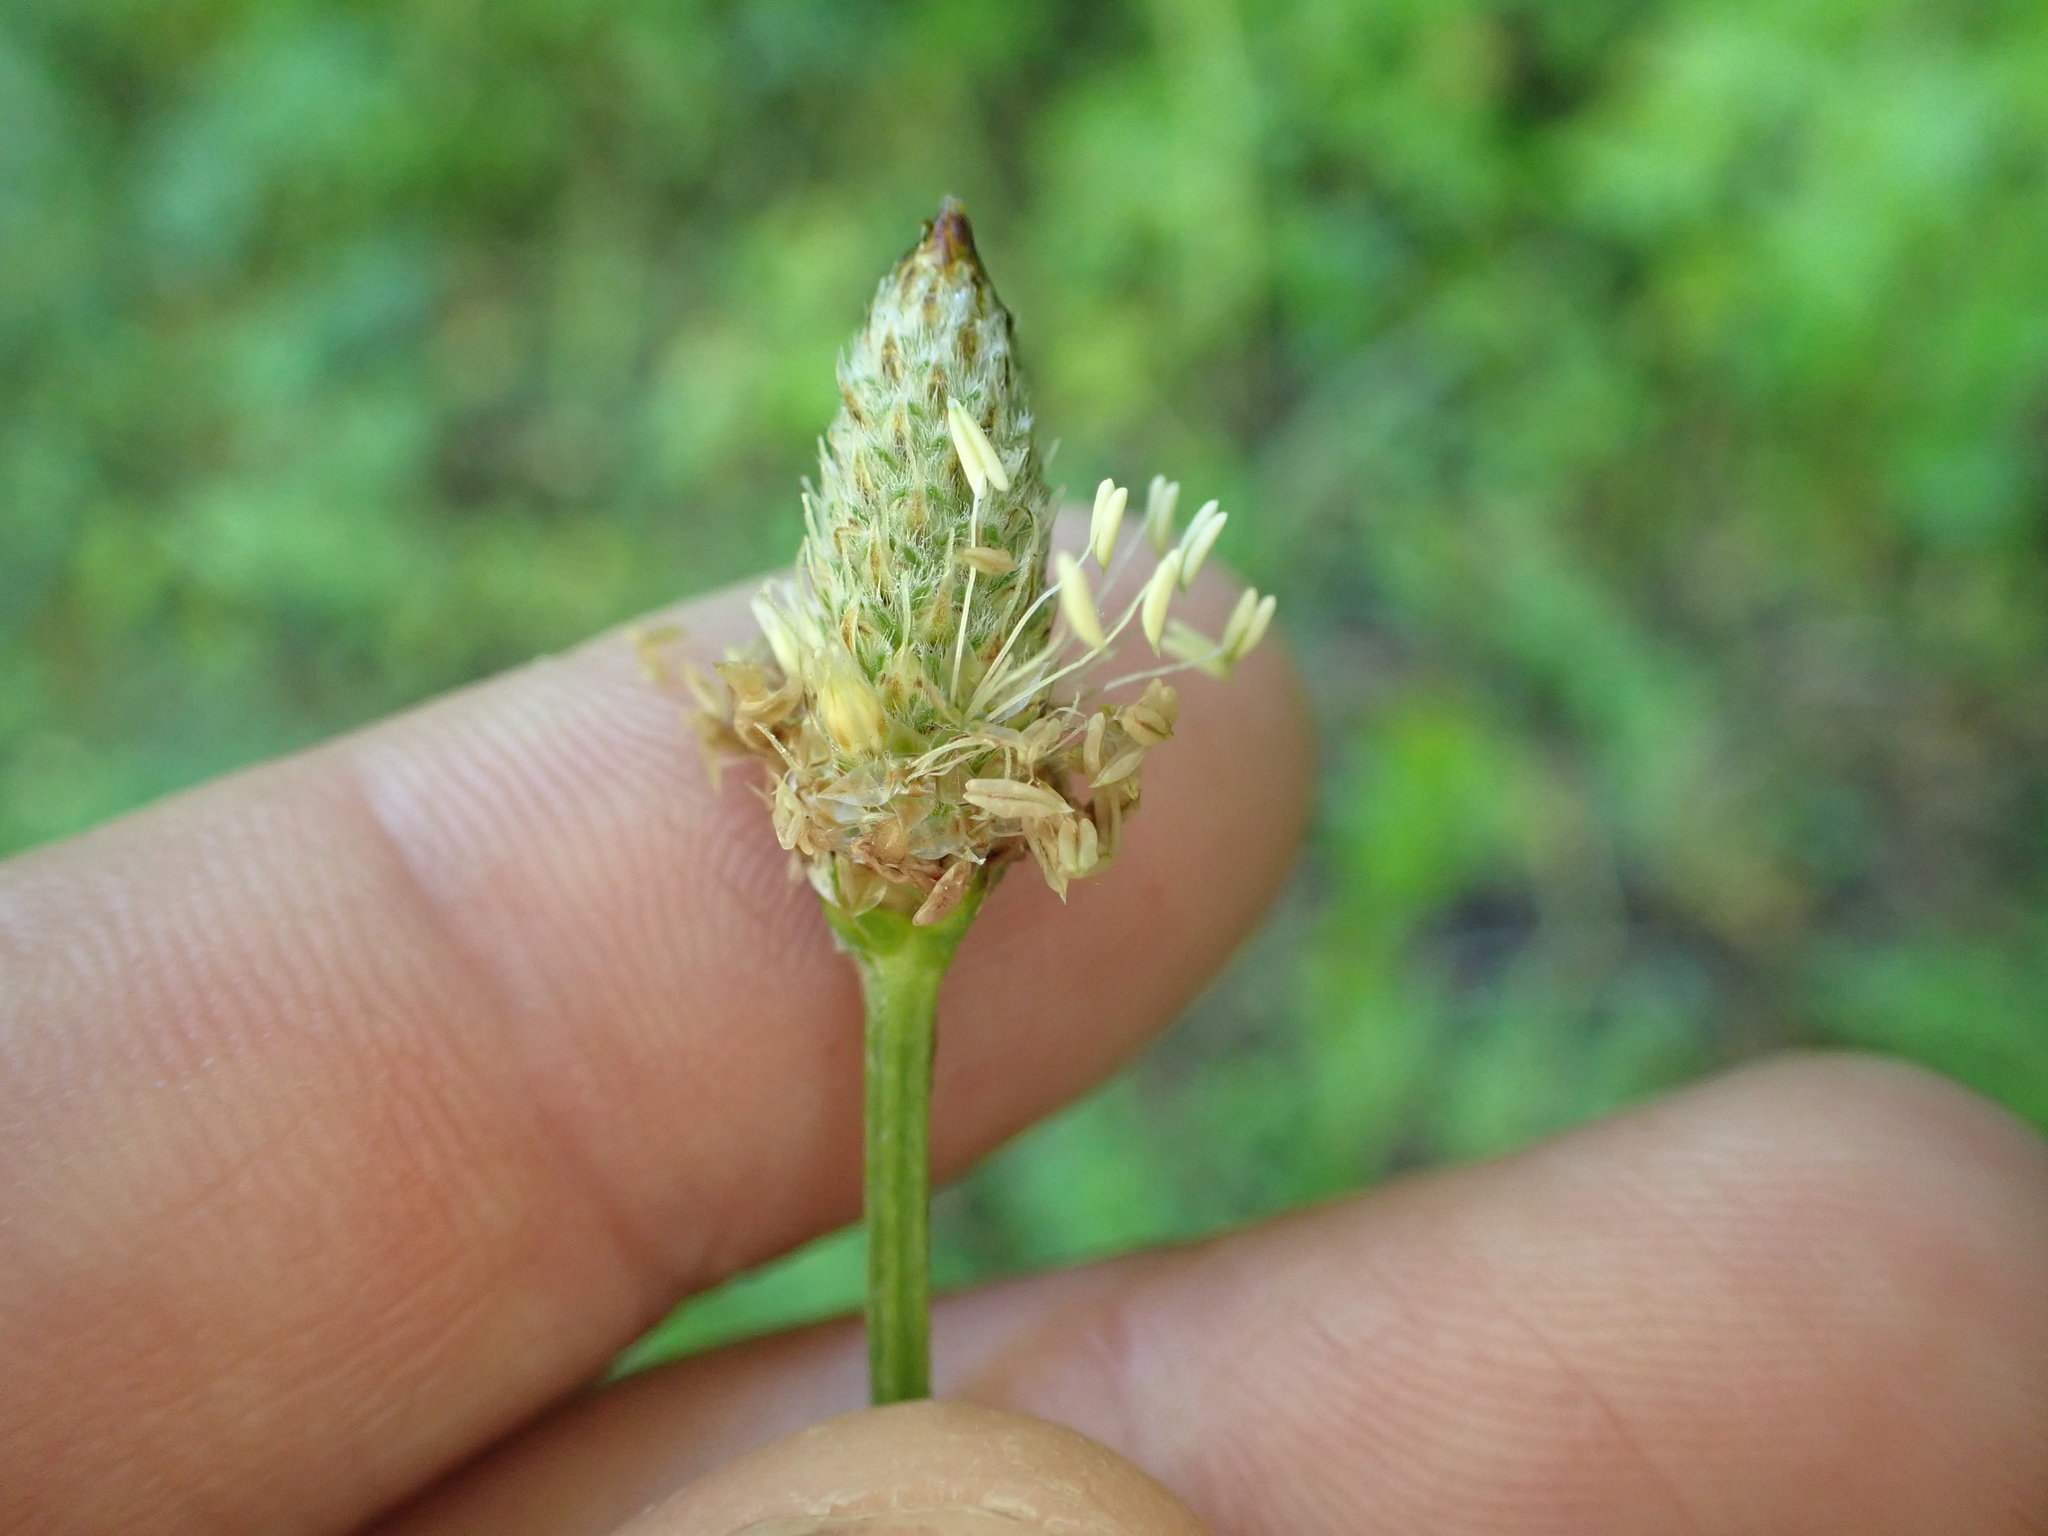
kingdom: Plantae
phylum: Tracheophyta
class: Magnoliopsida
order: Lamiales
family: Plantaginaceae
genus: Plantago
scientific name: Plantago lanceolata
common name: Ribwort plantain
